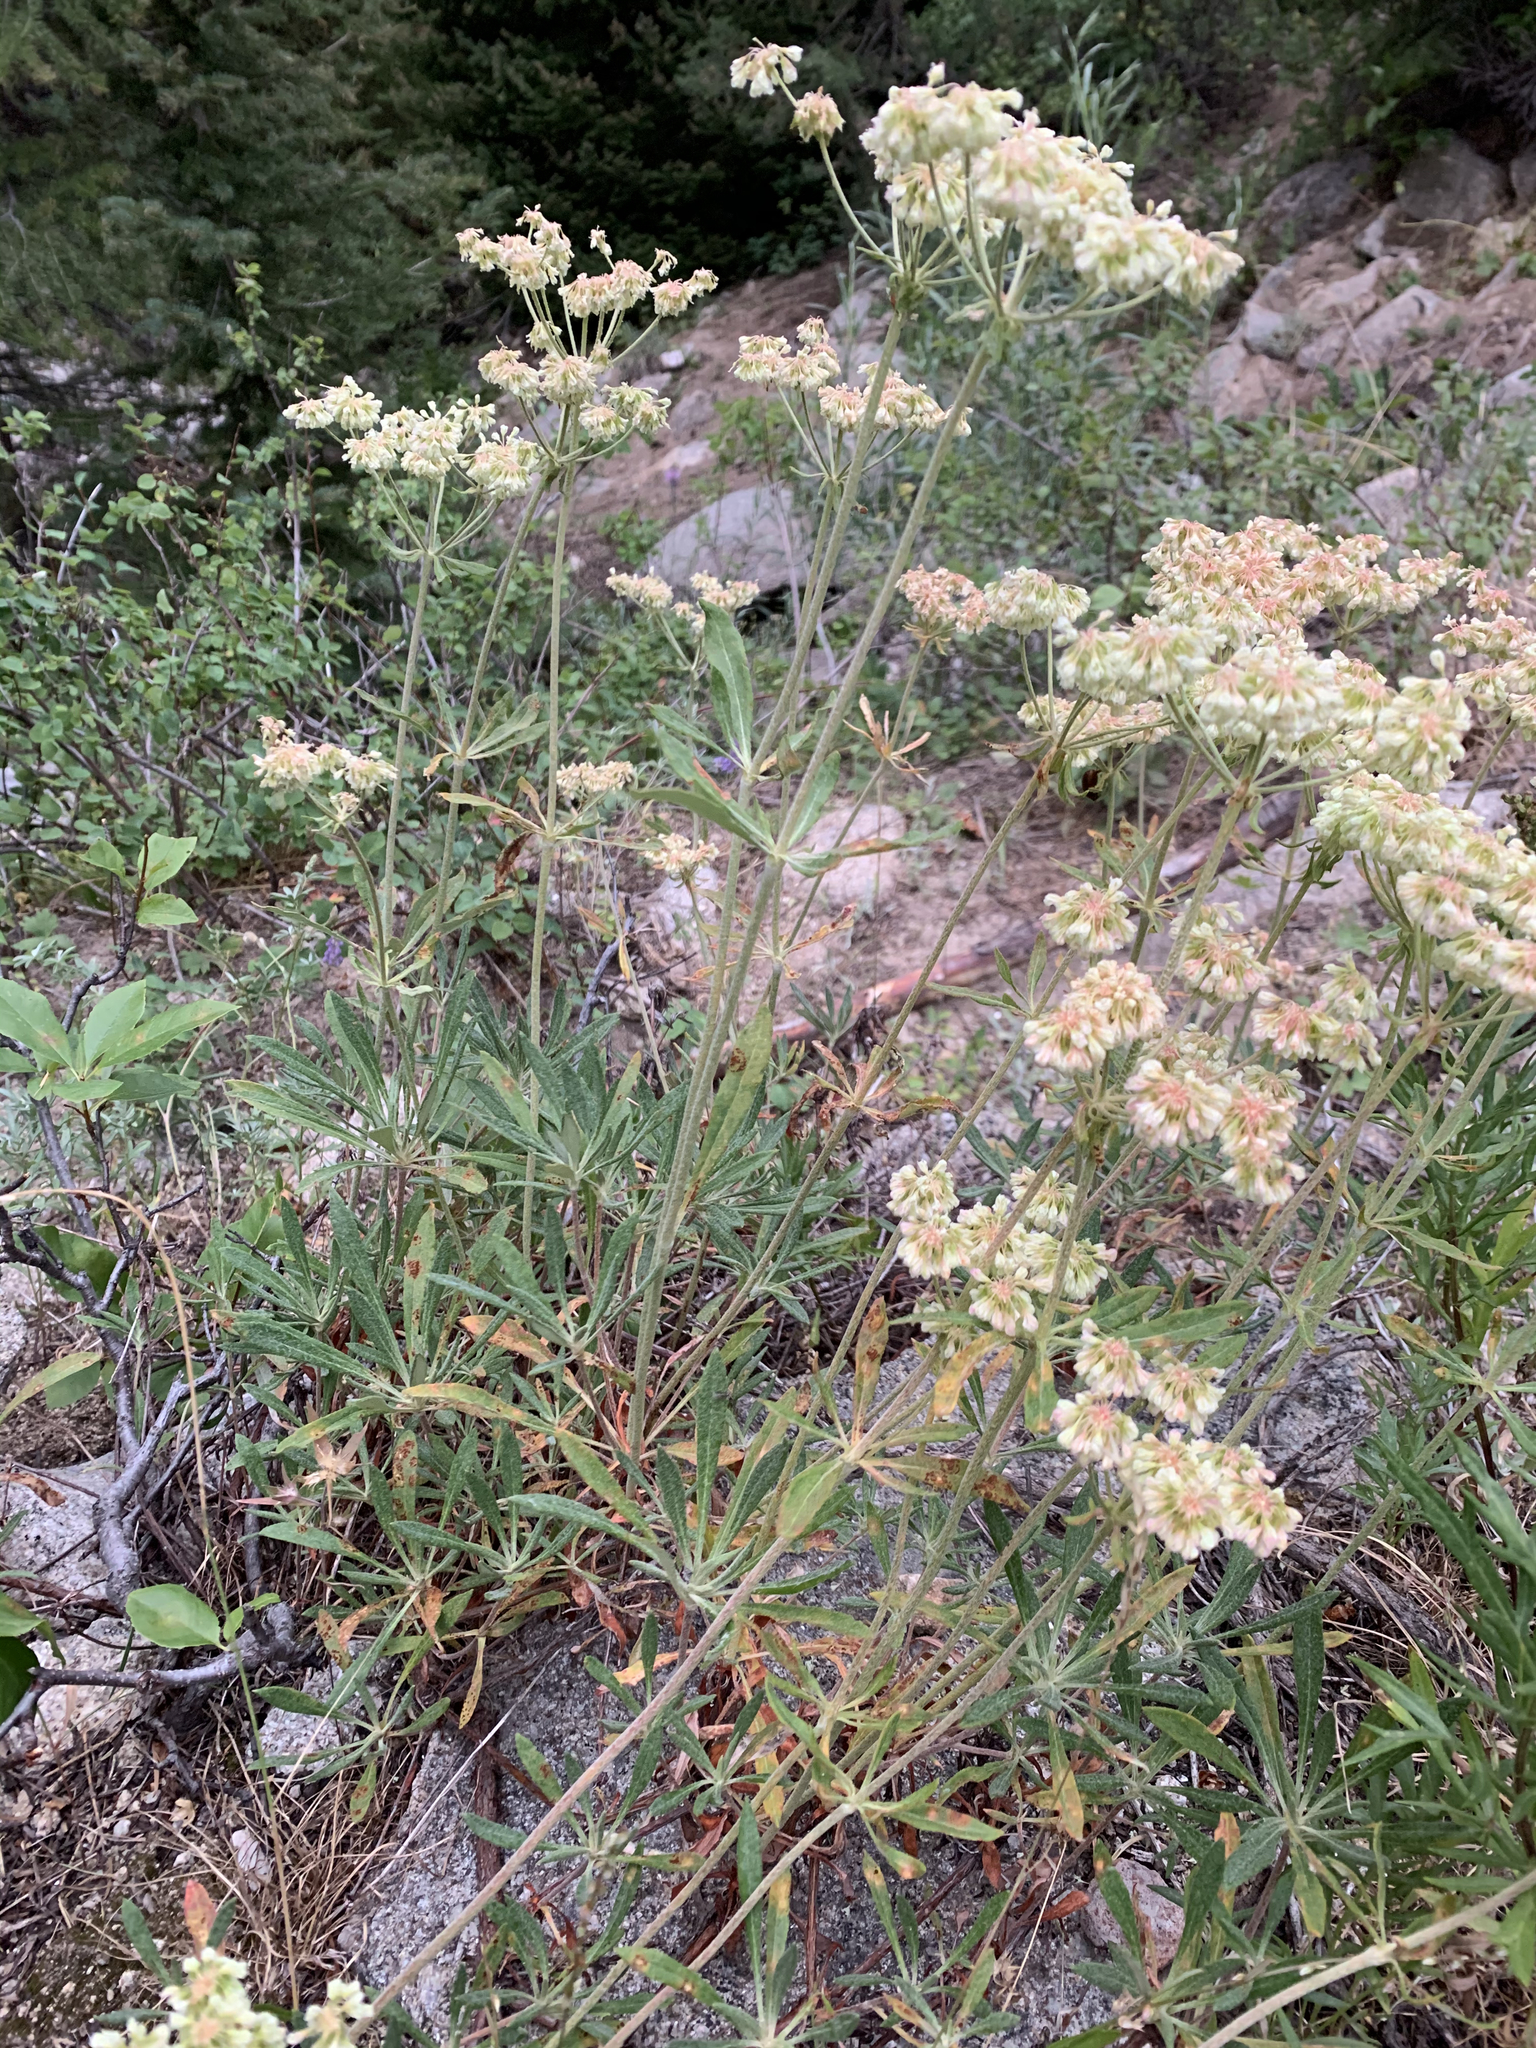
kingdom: Plantae
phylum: Tracheophyta
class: Magnoliopsida
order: Caryophyllales
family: Polygonaceae
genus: Eriogonum
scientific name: Eriogonum heracleoides
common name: Wyeth's buckwheat
